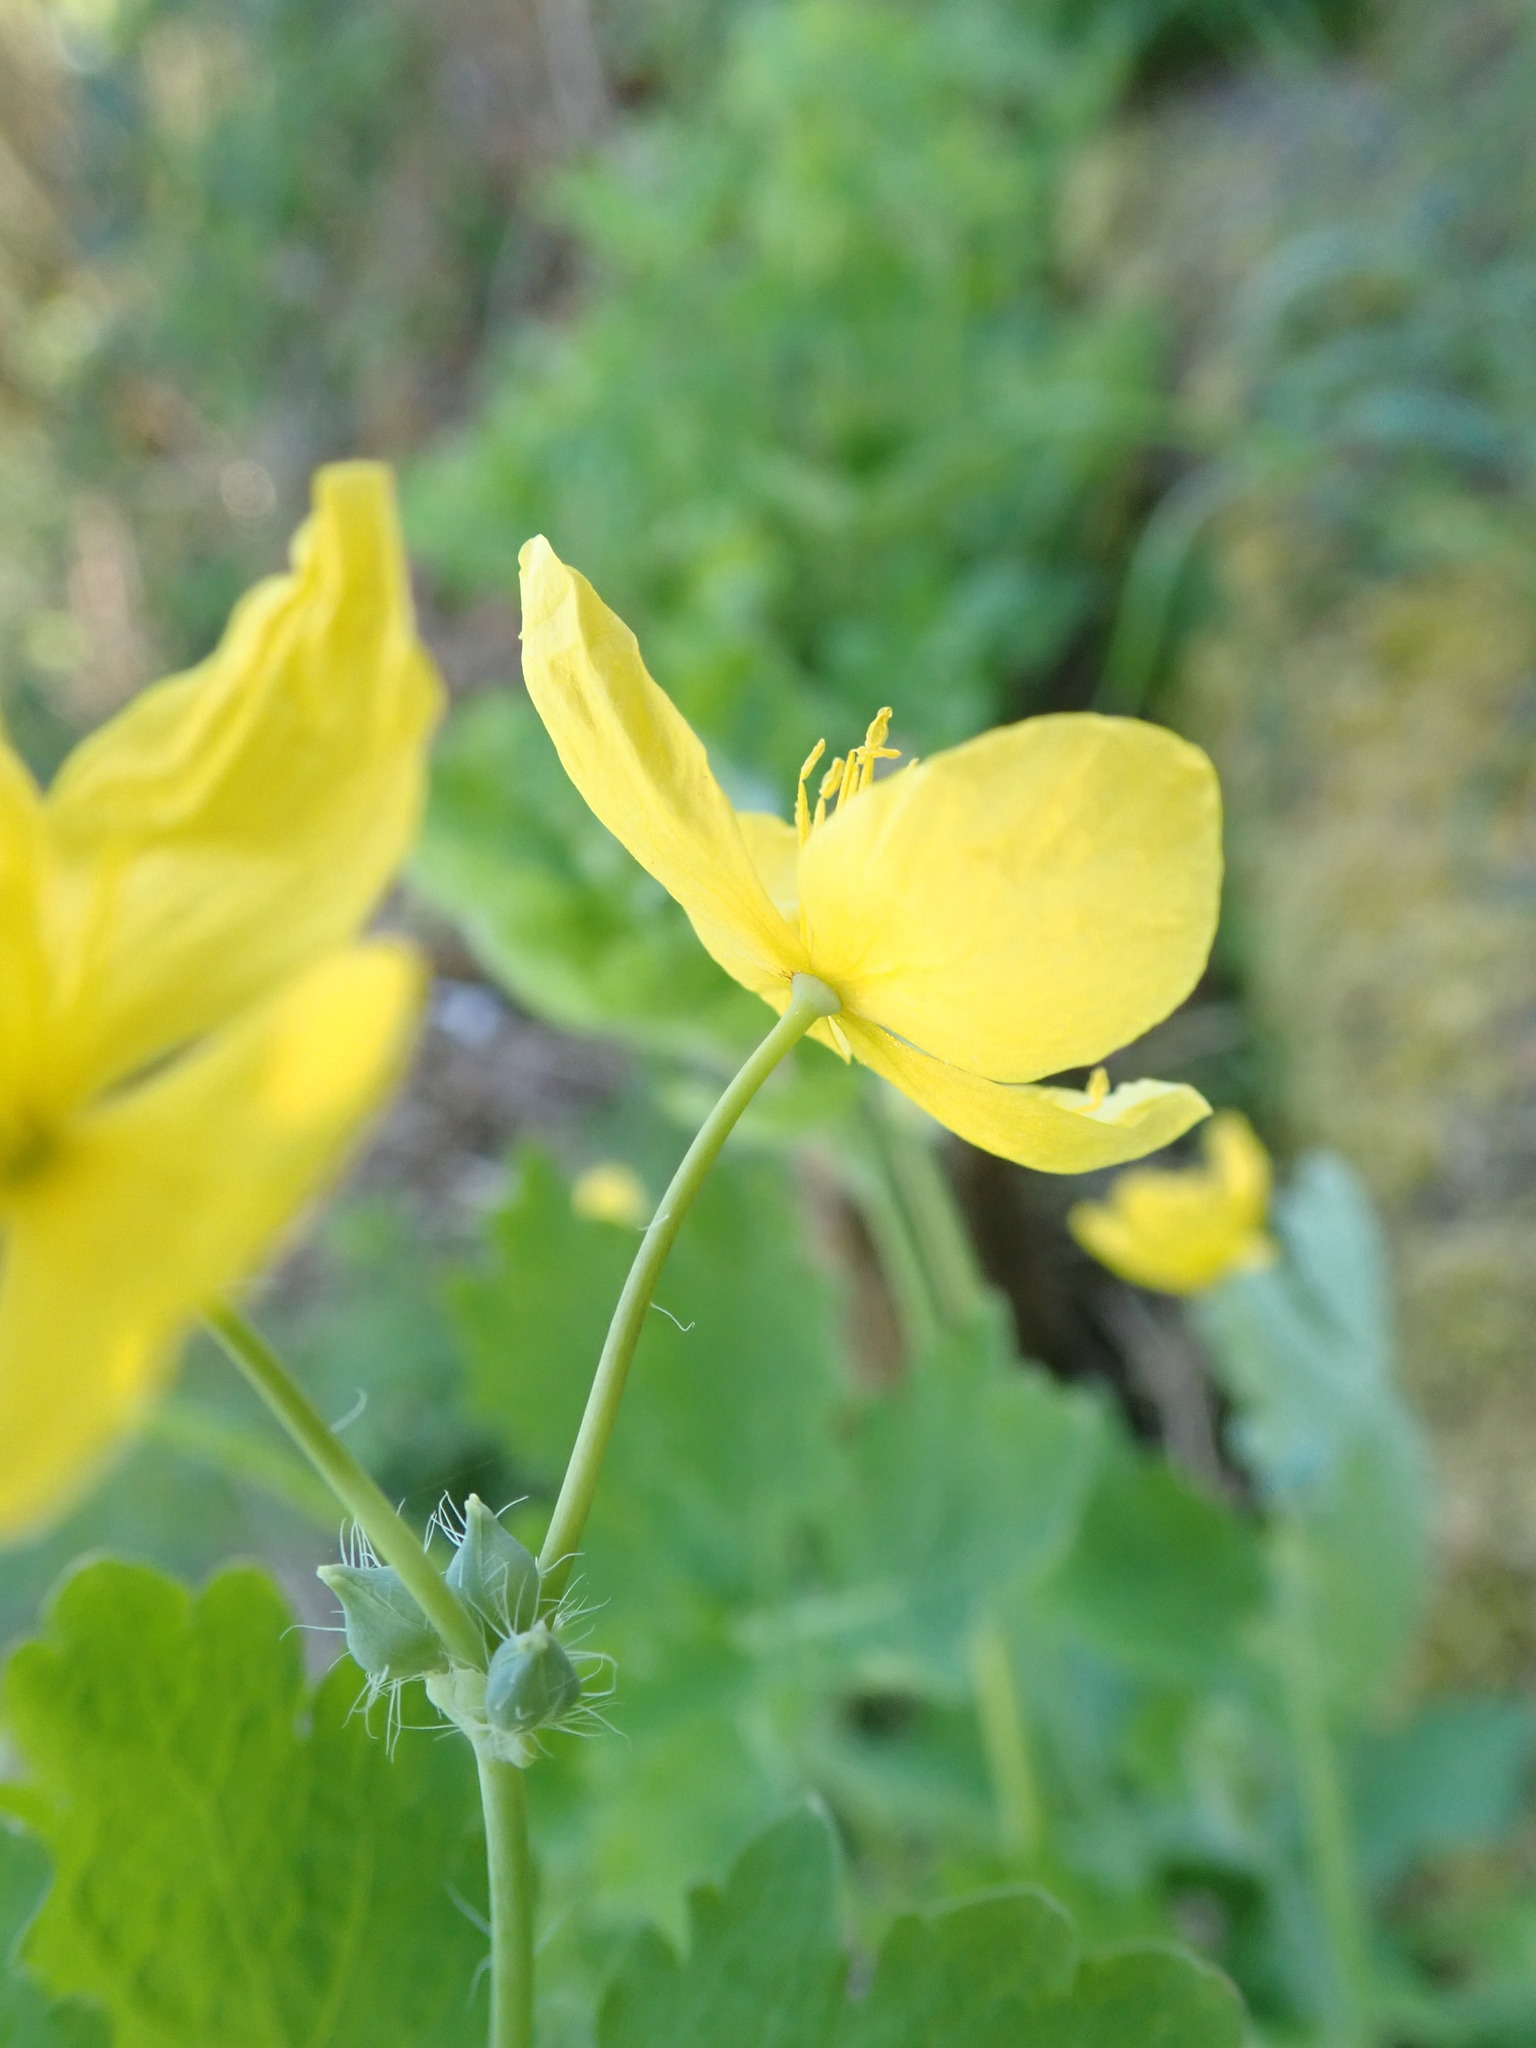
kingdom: Plantae
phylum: Tracheophyta
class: Magnoliopsida
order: Ranunculales
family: Papaveraceae
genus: Chelidonium
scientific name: Chelidonium majus
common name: Greater celandine
